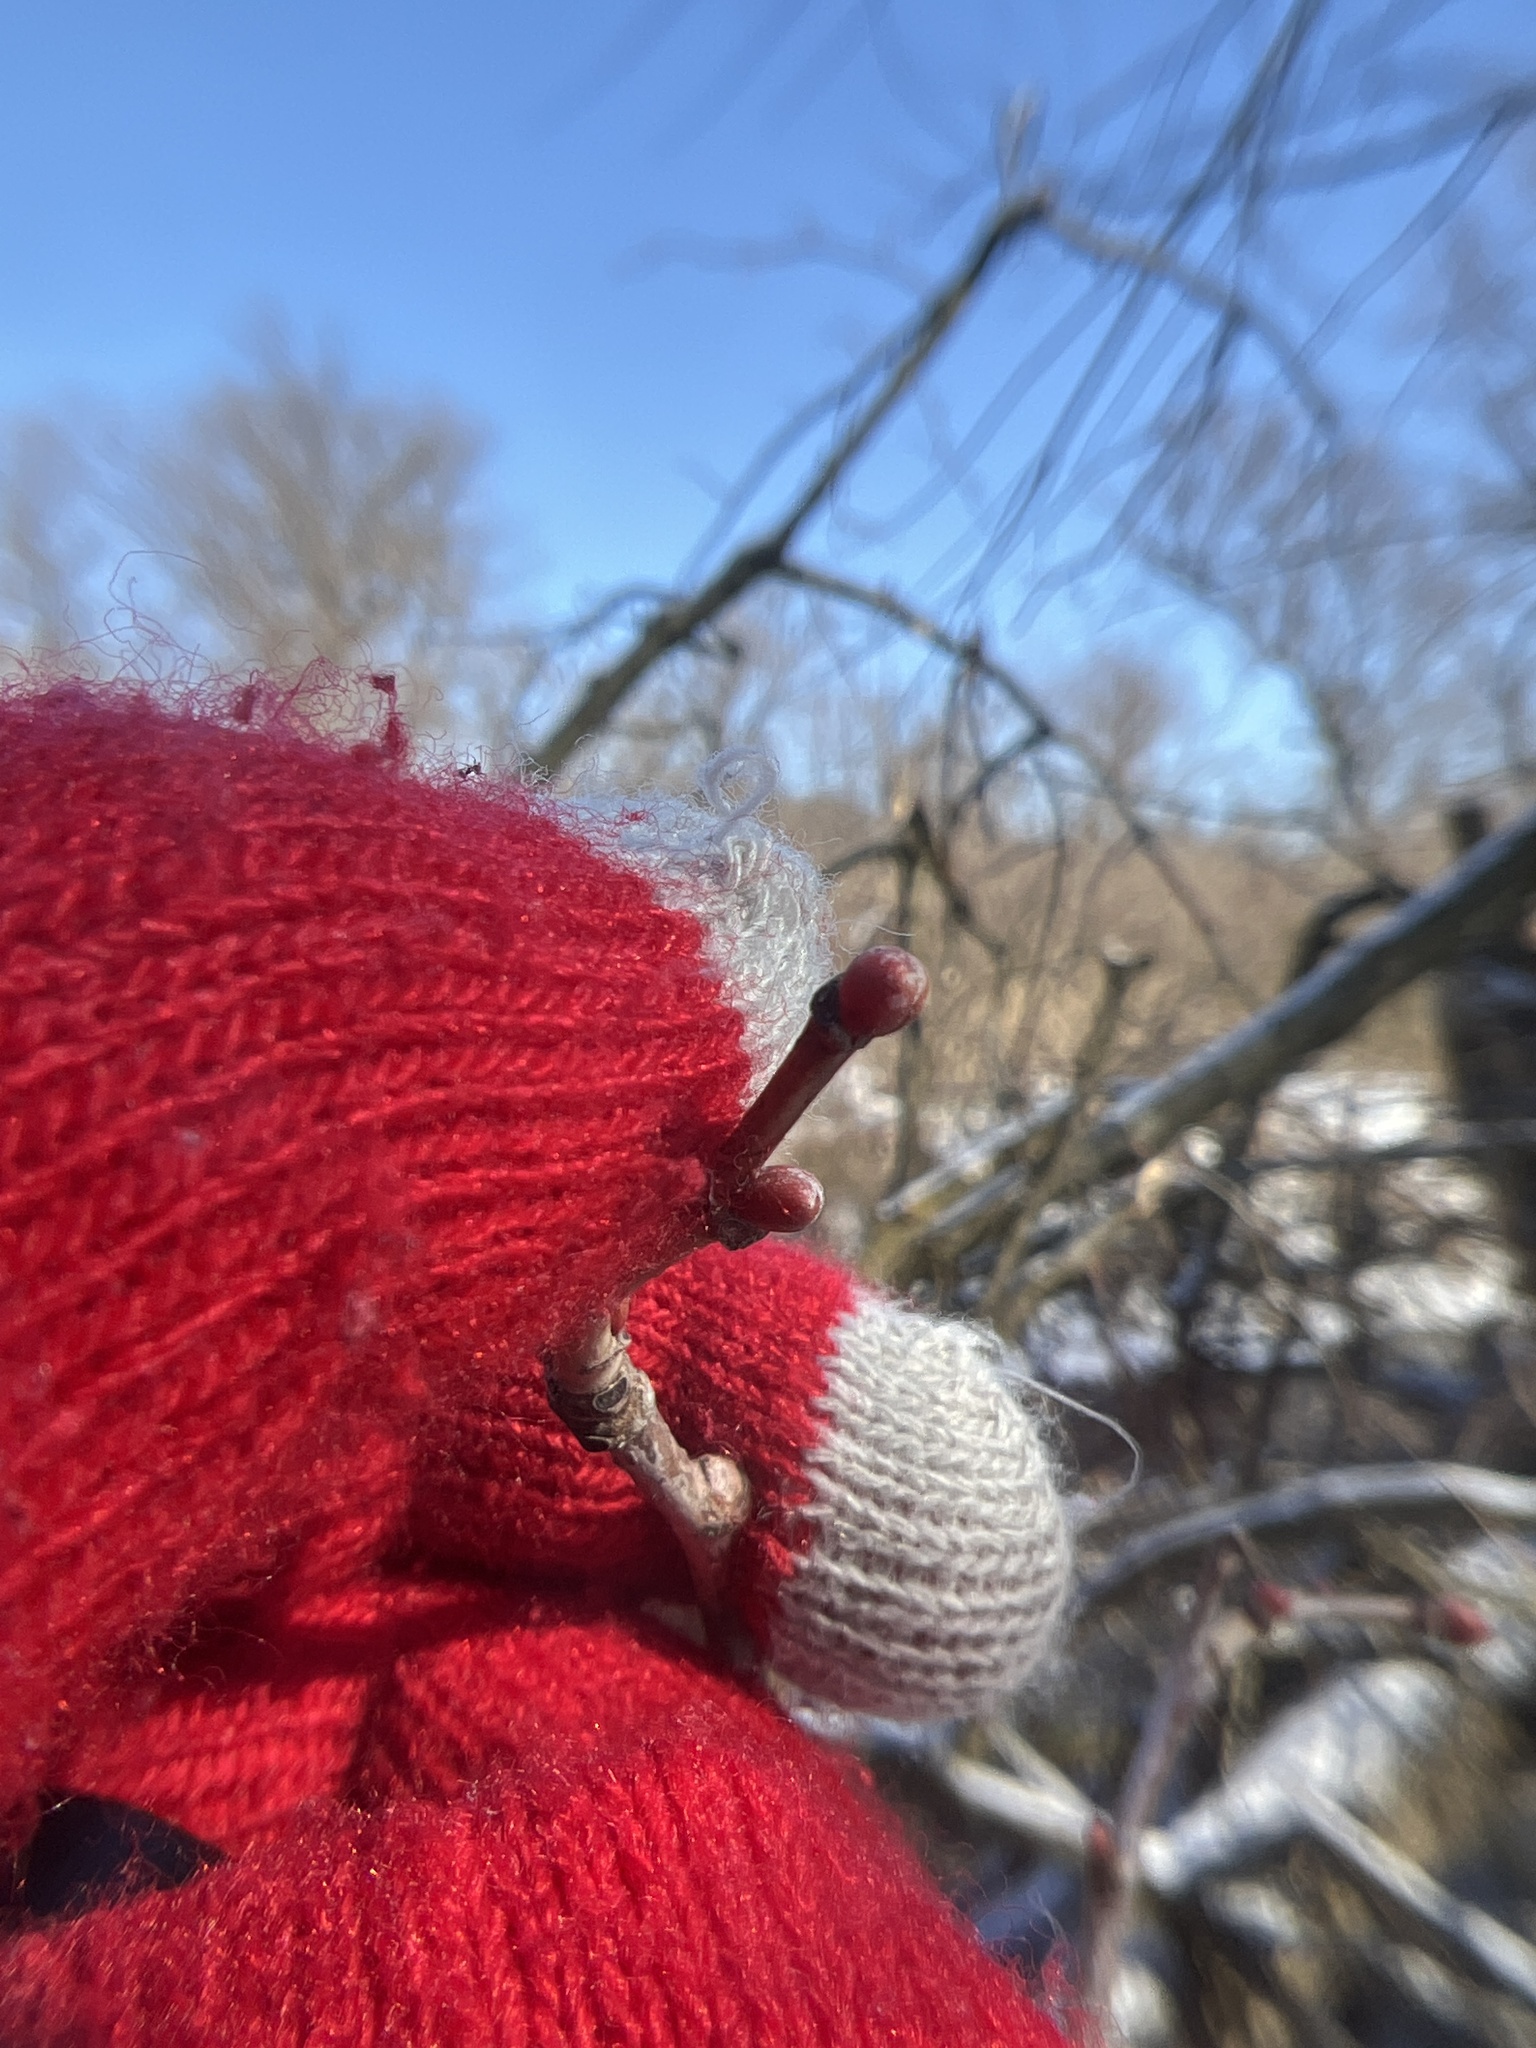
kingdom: Plantae
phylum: Tracheophyta
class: Magnoliopsida
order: Malvales
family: Malvaceae
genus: Tilia
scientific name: Tilia americana
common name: Basswood
